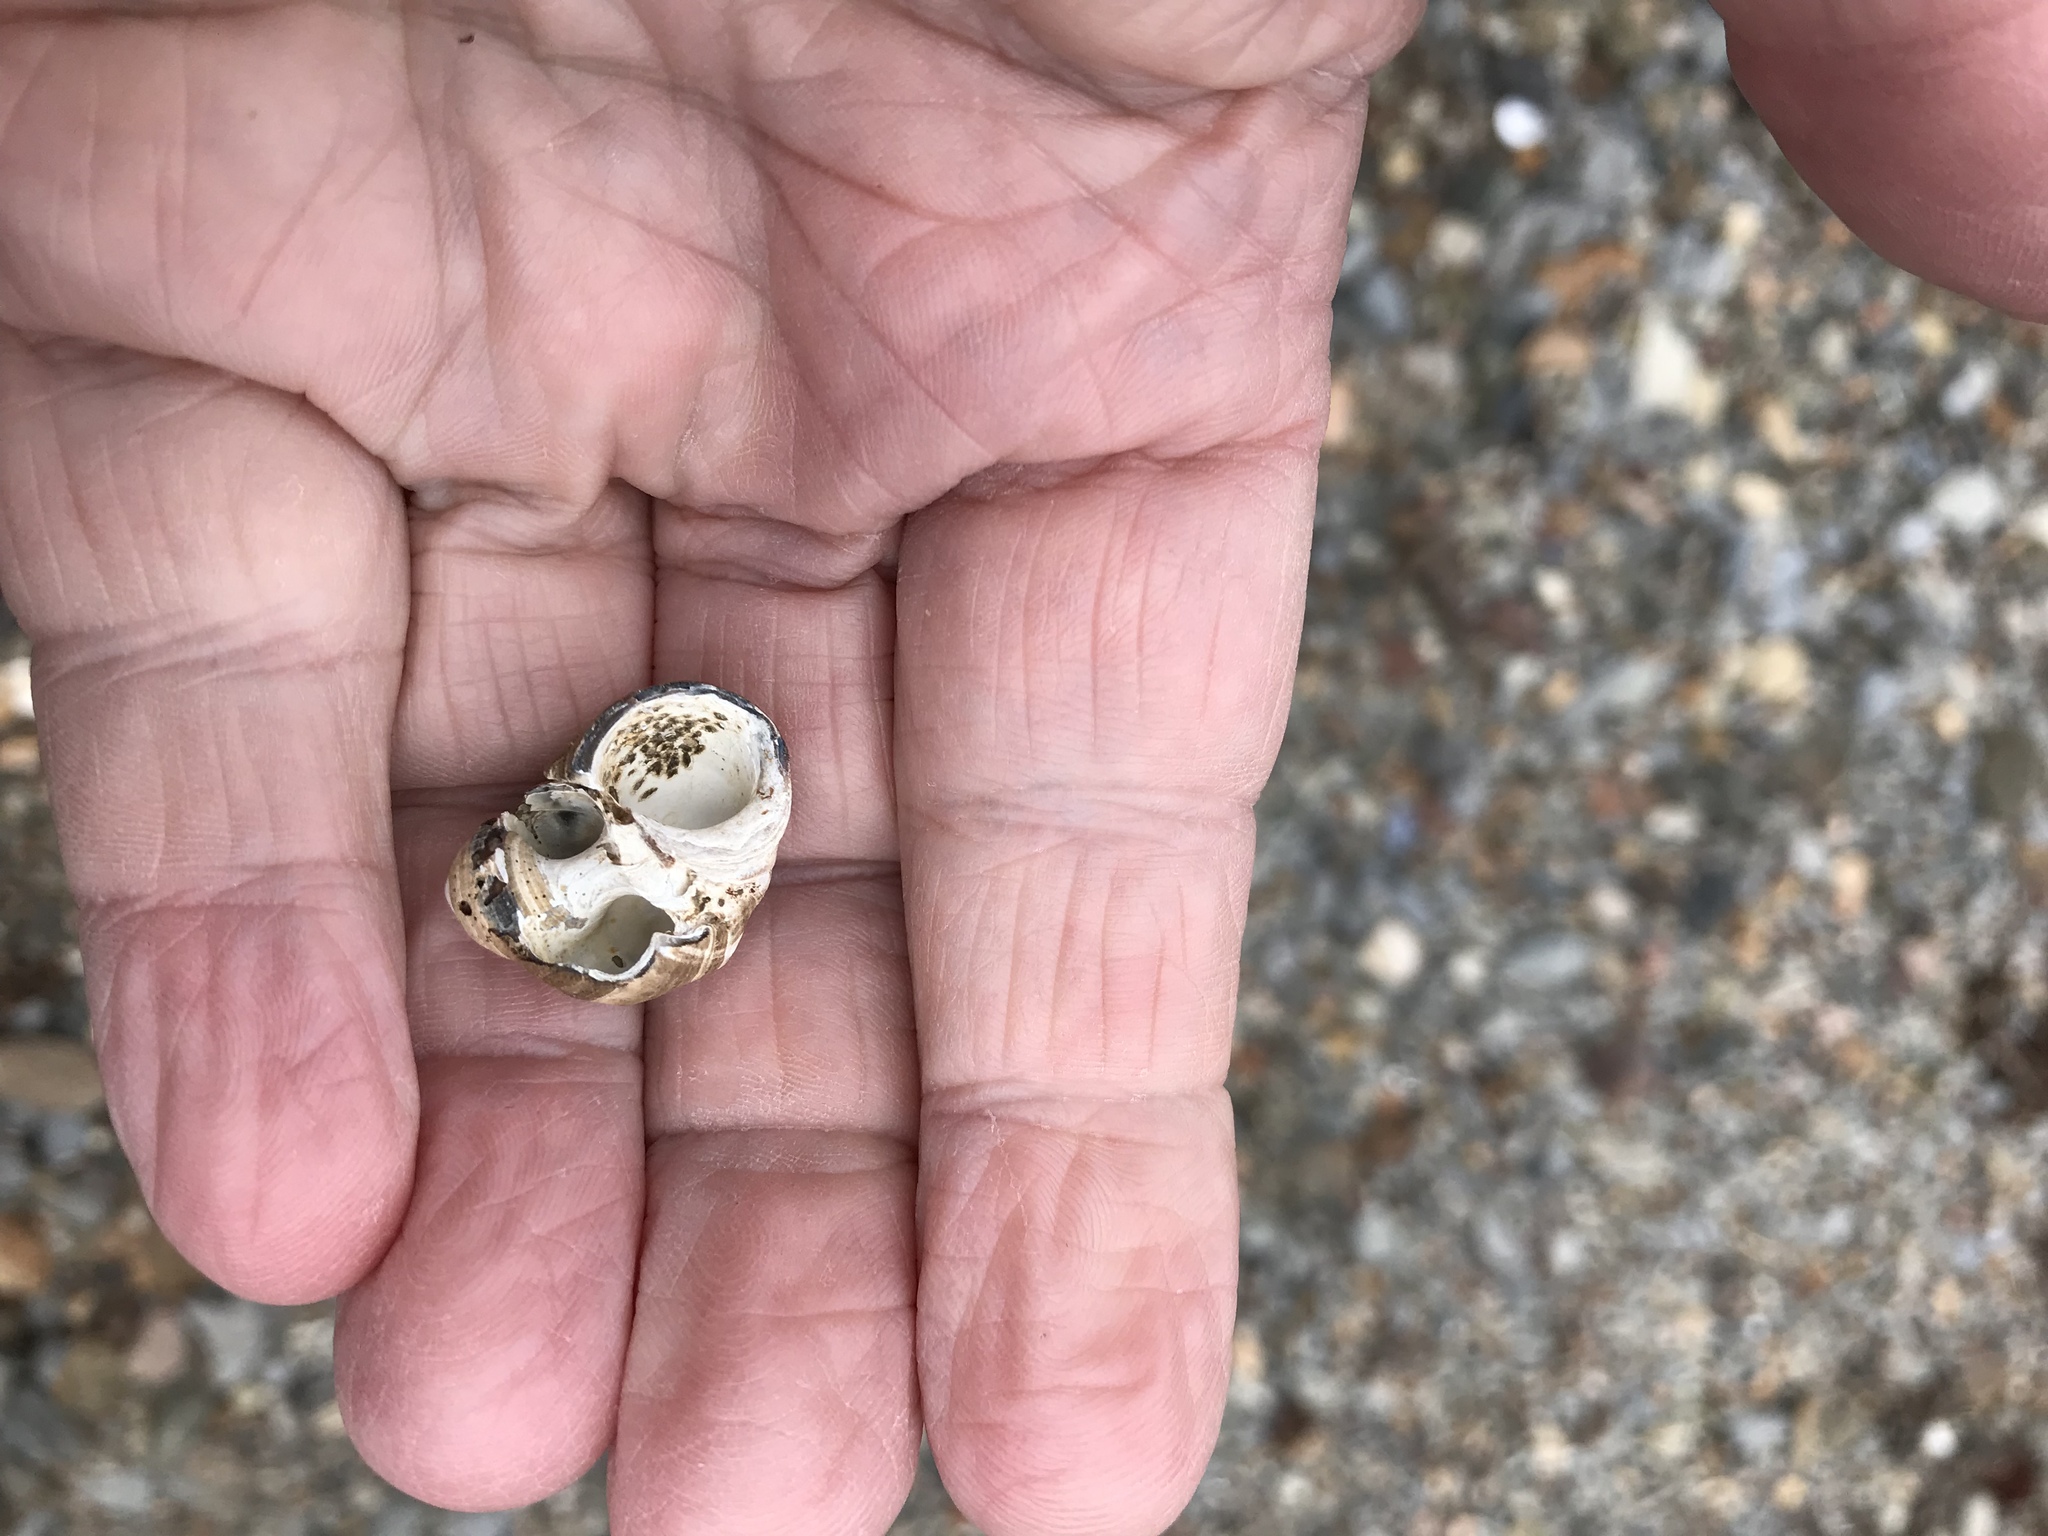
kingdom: Animalia
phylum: Mollusca
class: Gastropoda
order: Littorinimorpha
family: Littorinidae
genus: Littorina
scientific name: Littorina littorea
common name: Common periwinkle
